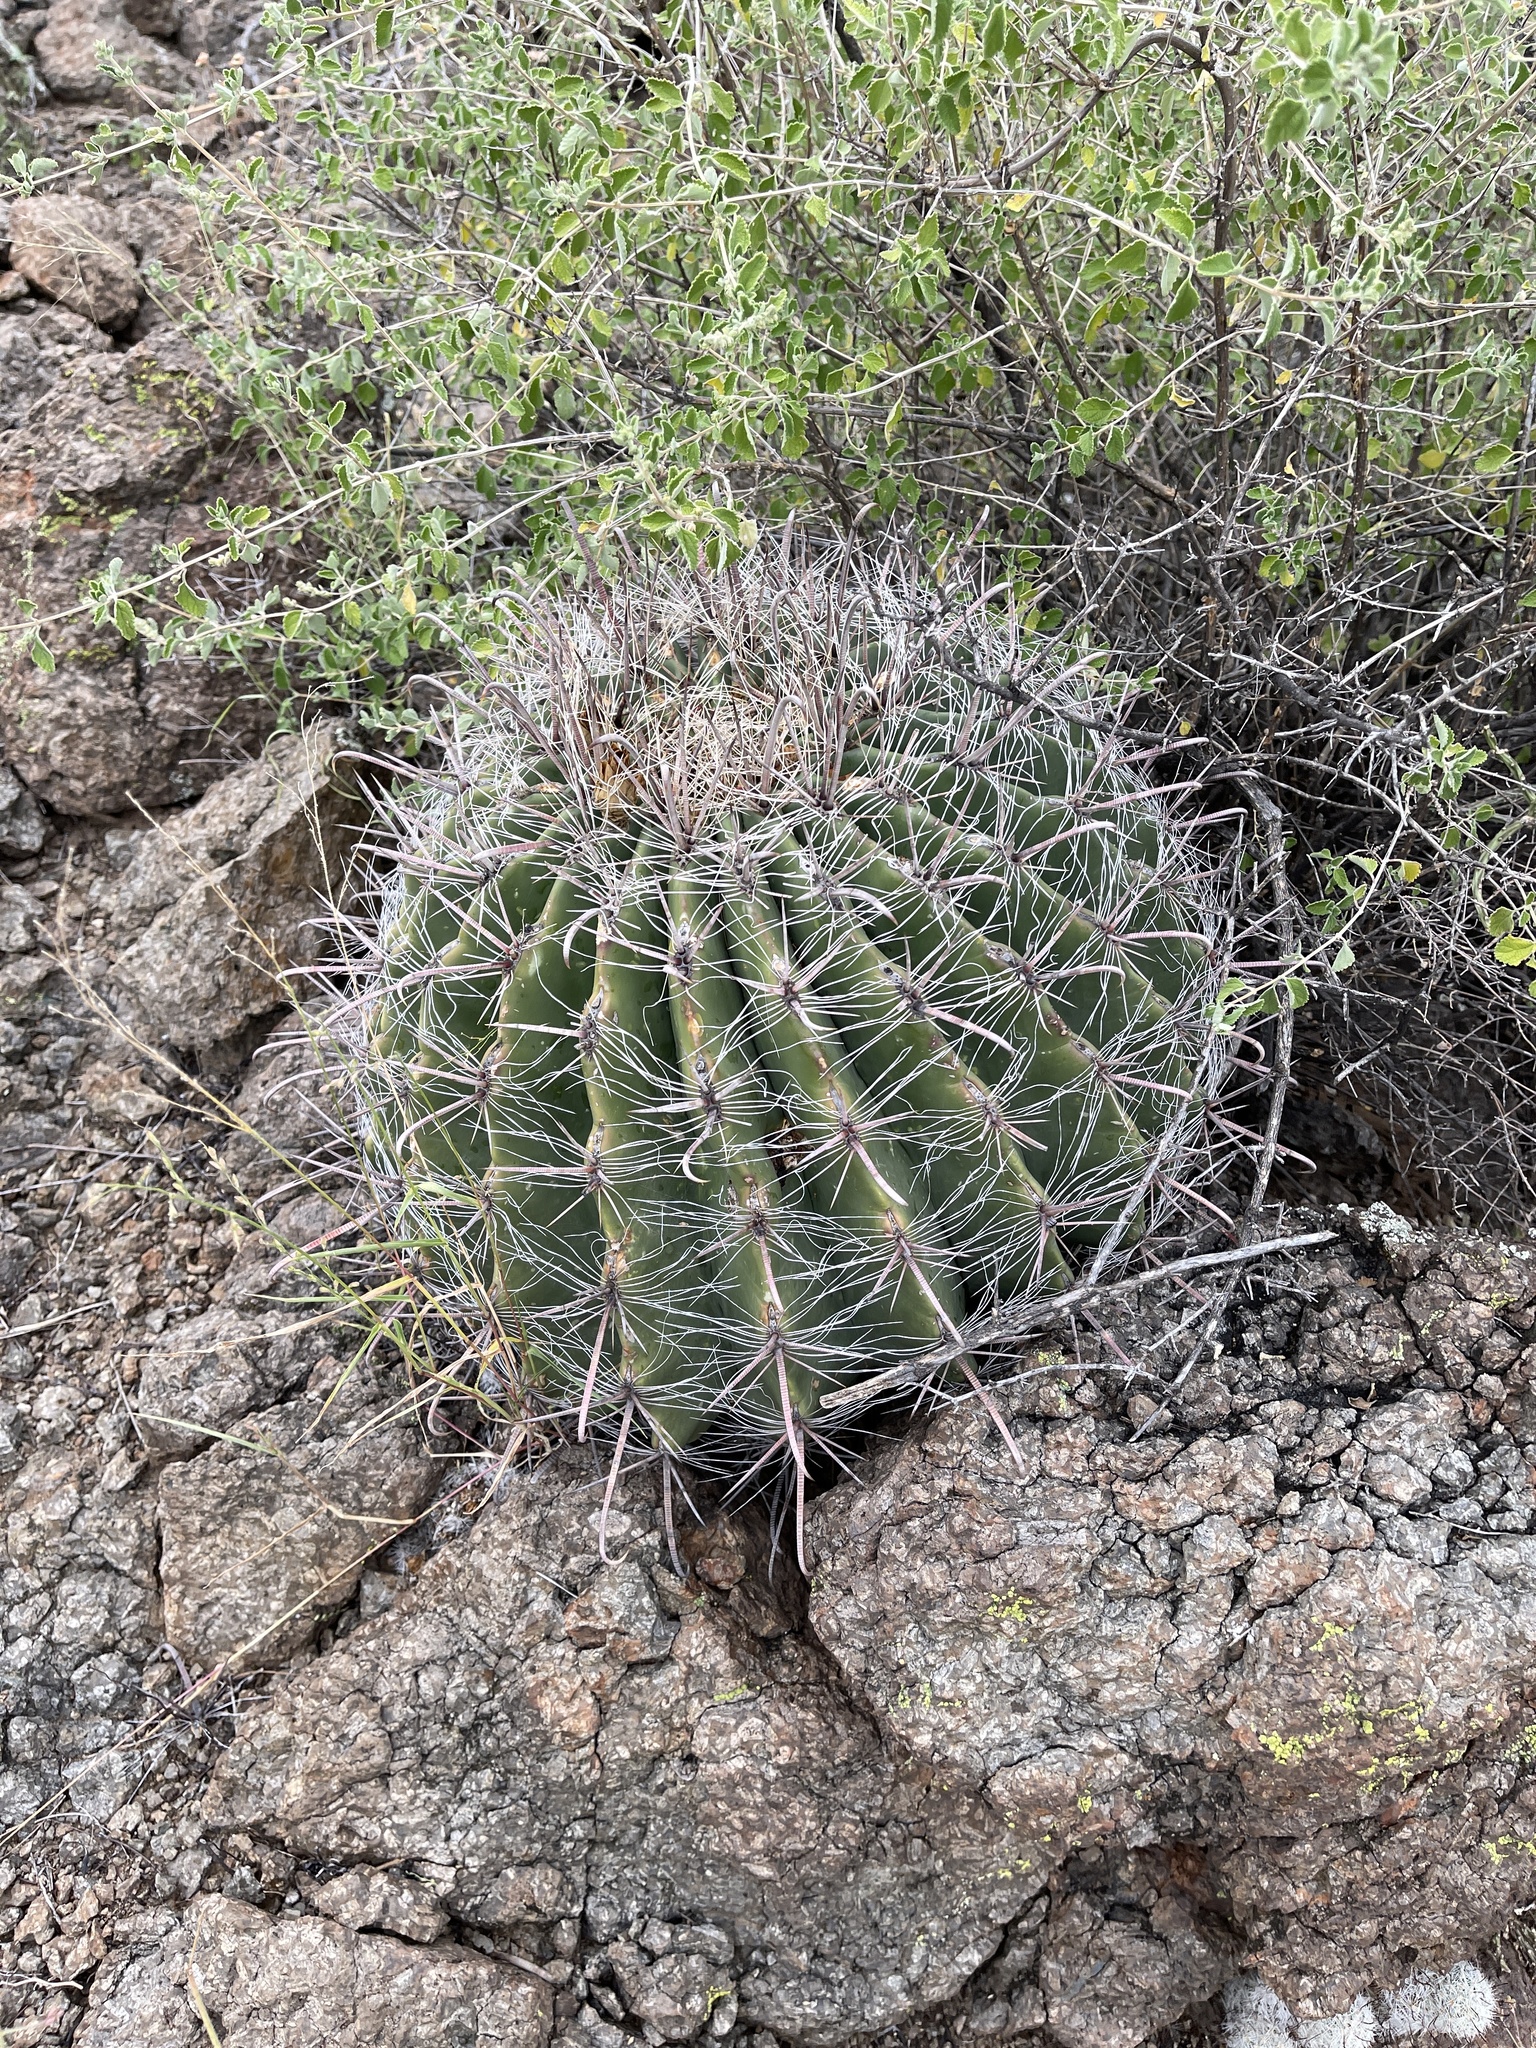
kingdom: Plantae
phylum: Tracheophyta
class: Magnoliopsida
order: Caryophyllales
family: Cactaceae
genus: Ferocactus
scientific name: Ferocactus wislizeni
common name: Candy barrel cactus
